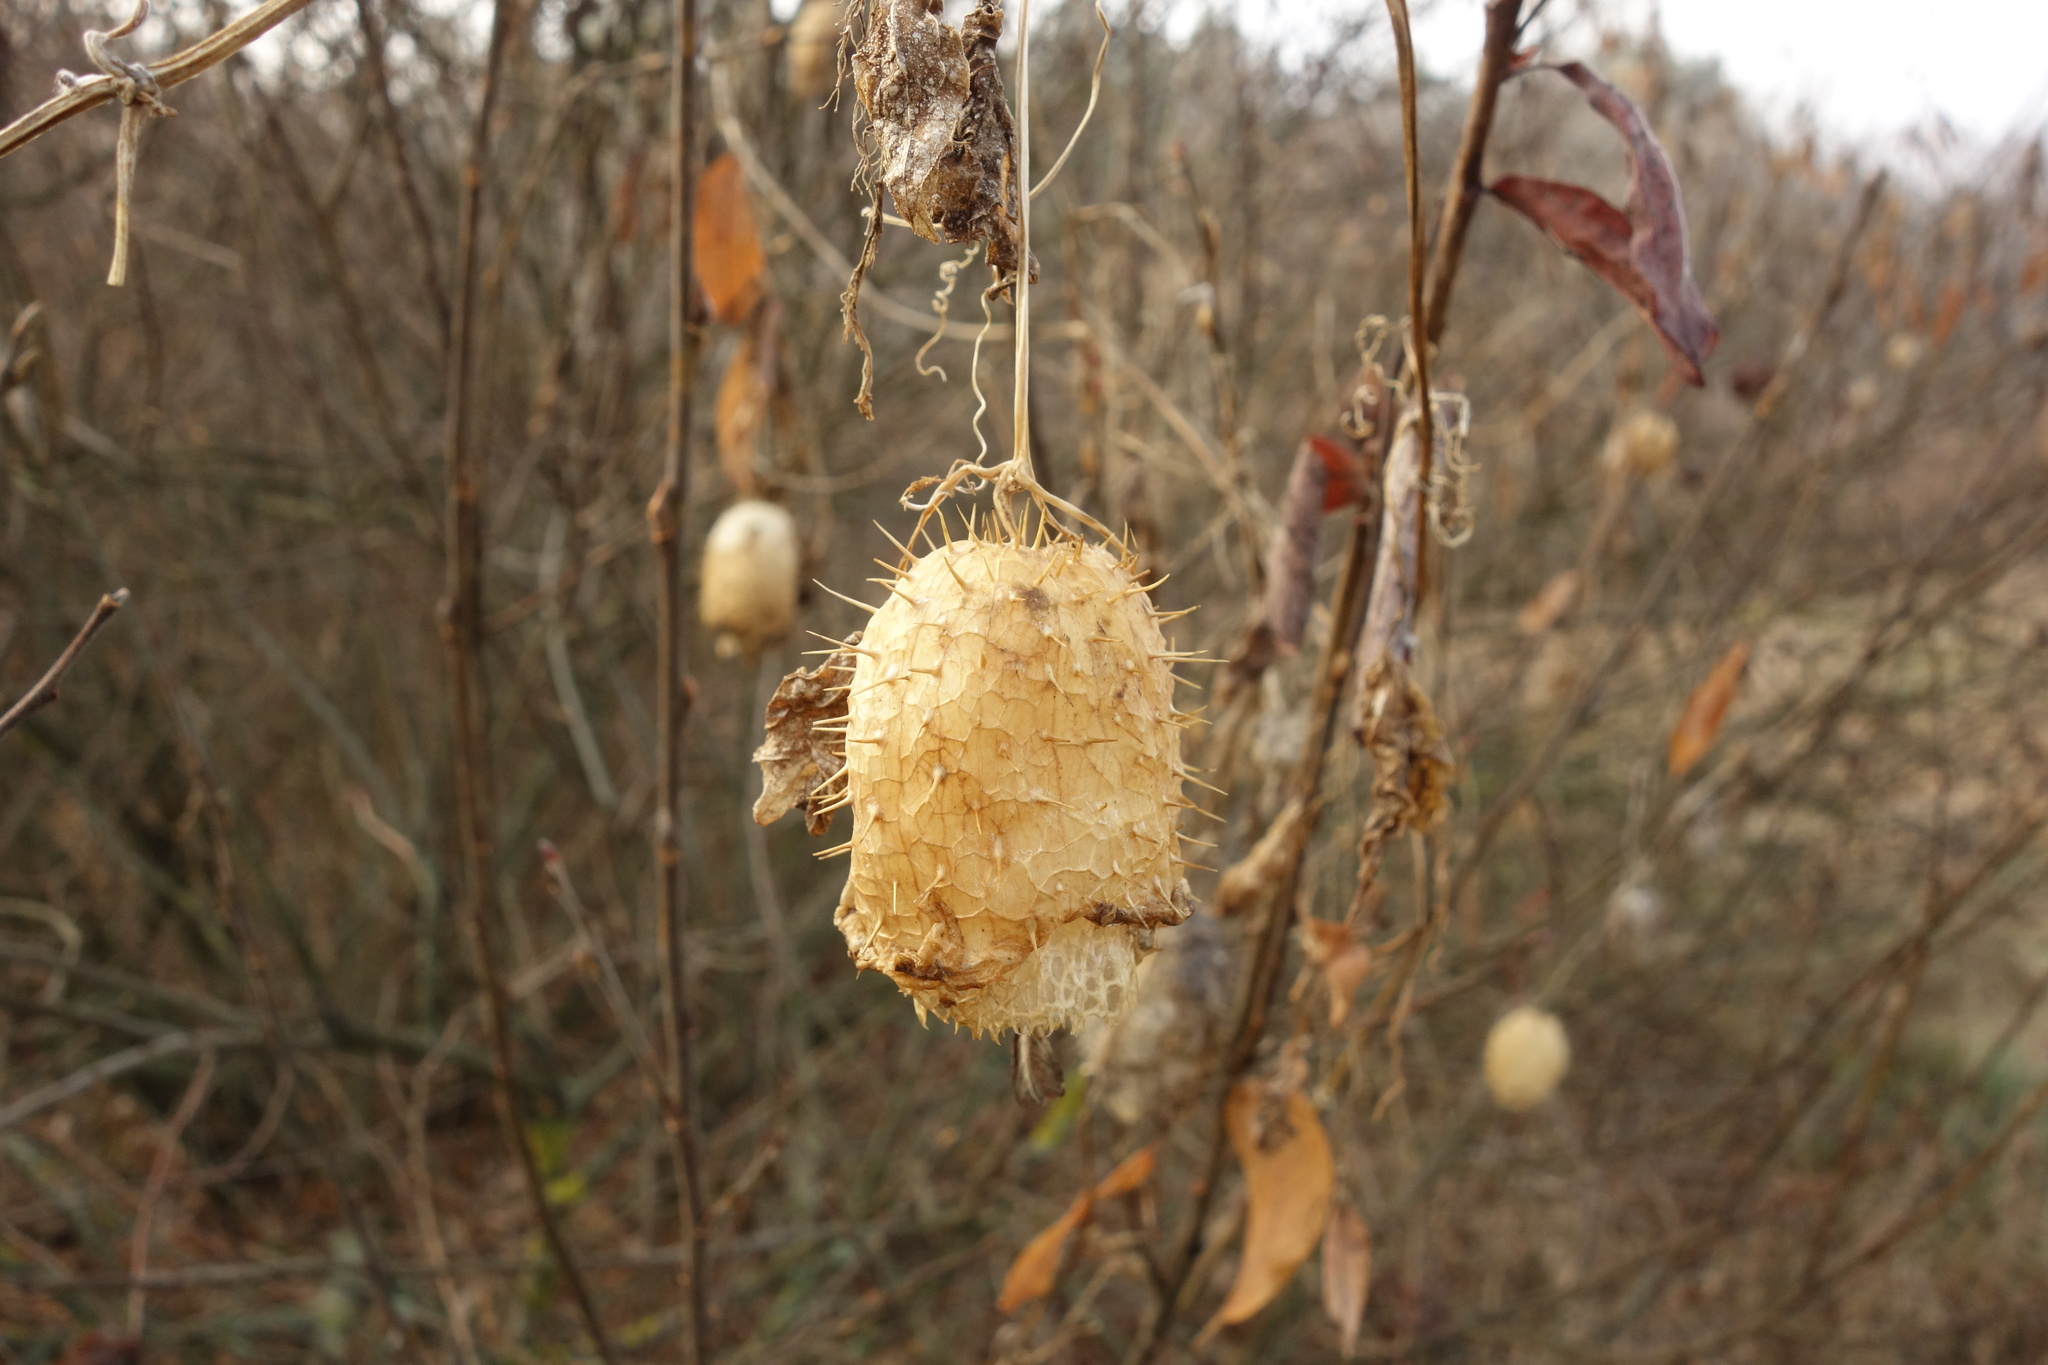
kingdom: Plantae
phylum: Tracheophyta
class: Magnoliopsida
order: Cucurbitales
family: Cucurbitaceae
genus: Echinocystis
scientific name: Echinocystis lobata
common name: Wild cucumber
